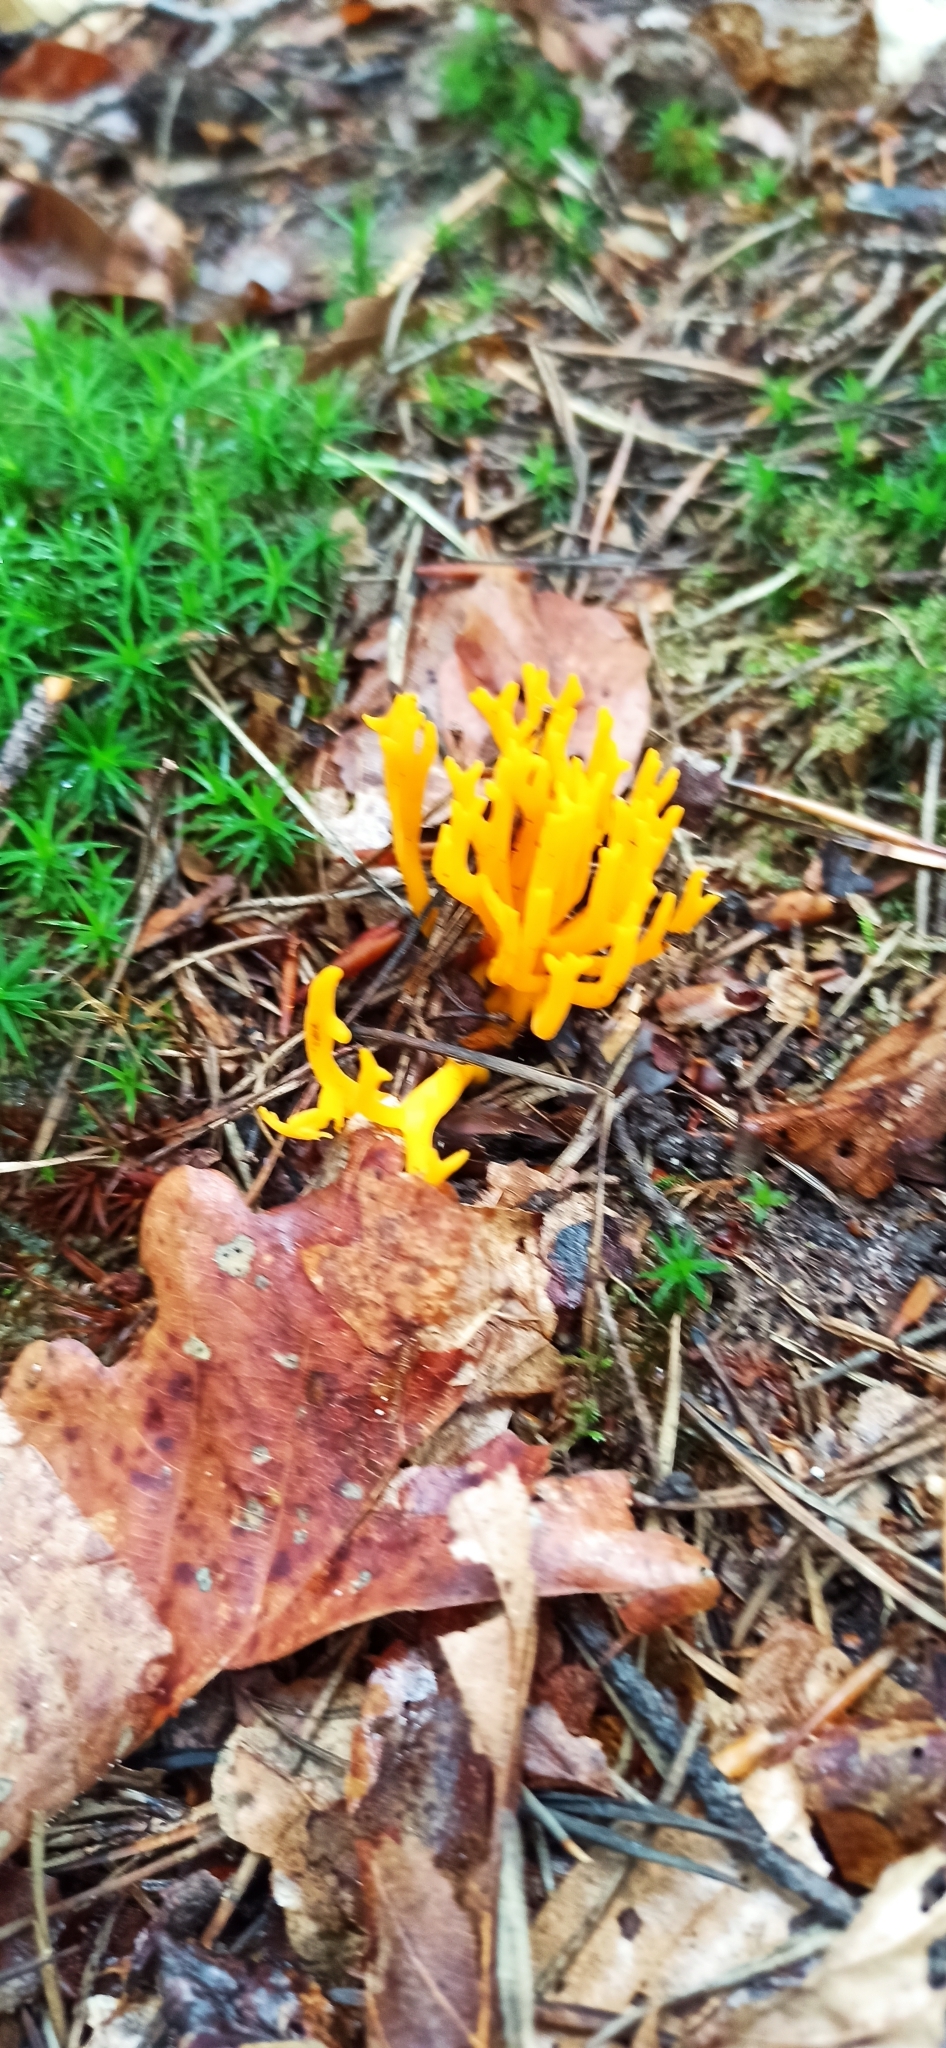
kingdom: Fungi
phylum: Basidiomycota
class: Dacrymycetes
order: Dacrymycetales
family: Dacrymycetaceae
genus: Calocera
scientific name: Calocera viscosa
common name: Yellow stagshorn
